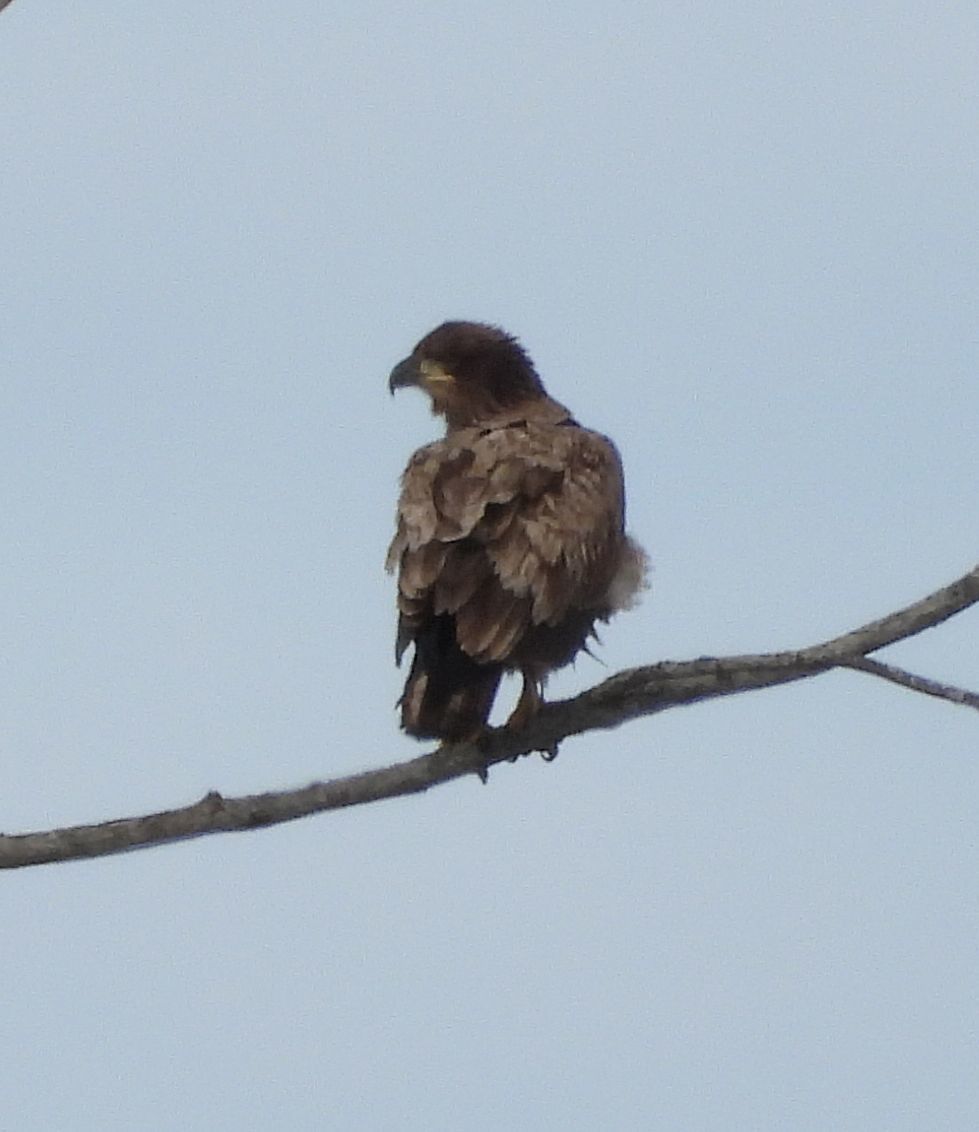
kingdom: Animalia
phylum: Chordata
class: Aves
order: Accipitriformes
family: Accipitridae
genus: Haliaeetus
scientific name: Haliaeetus leucocephalus
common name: Bald eagle
